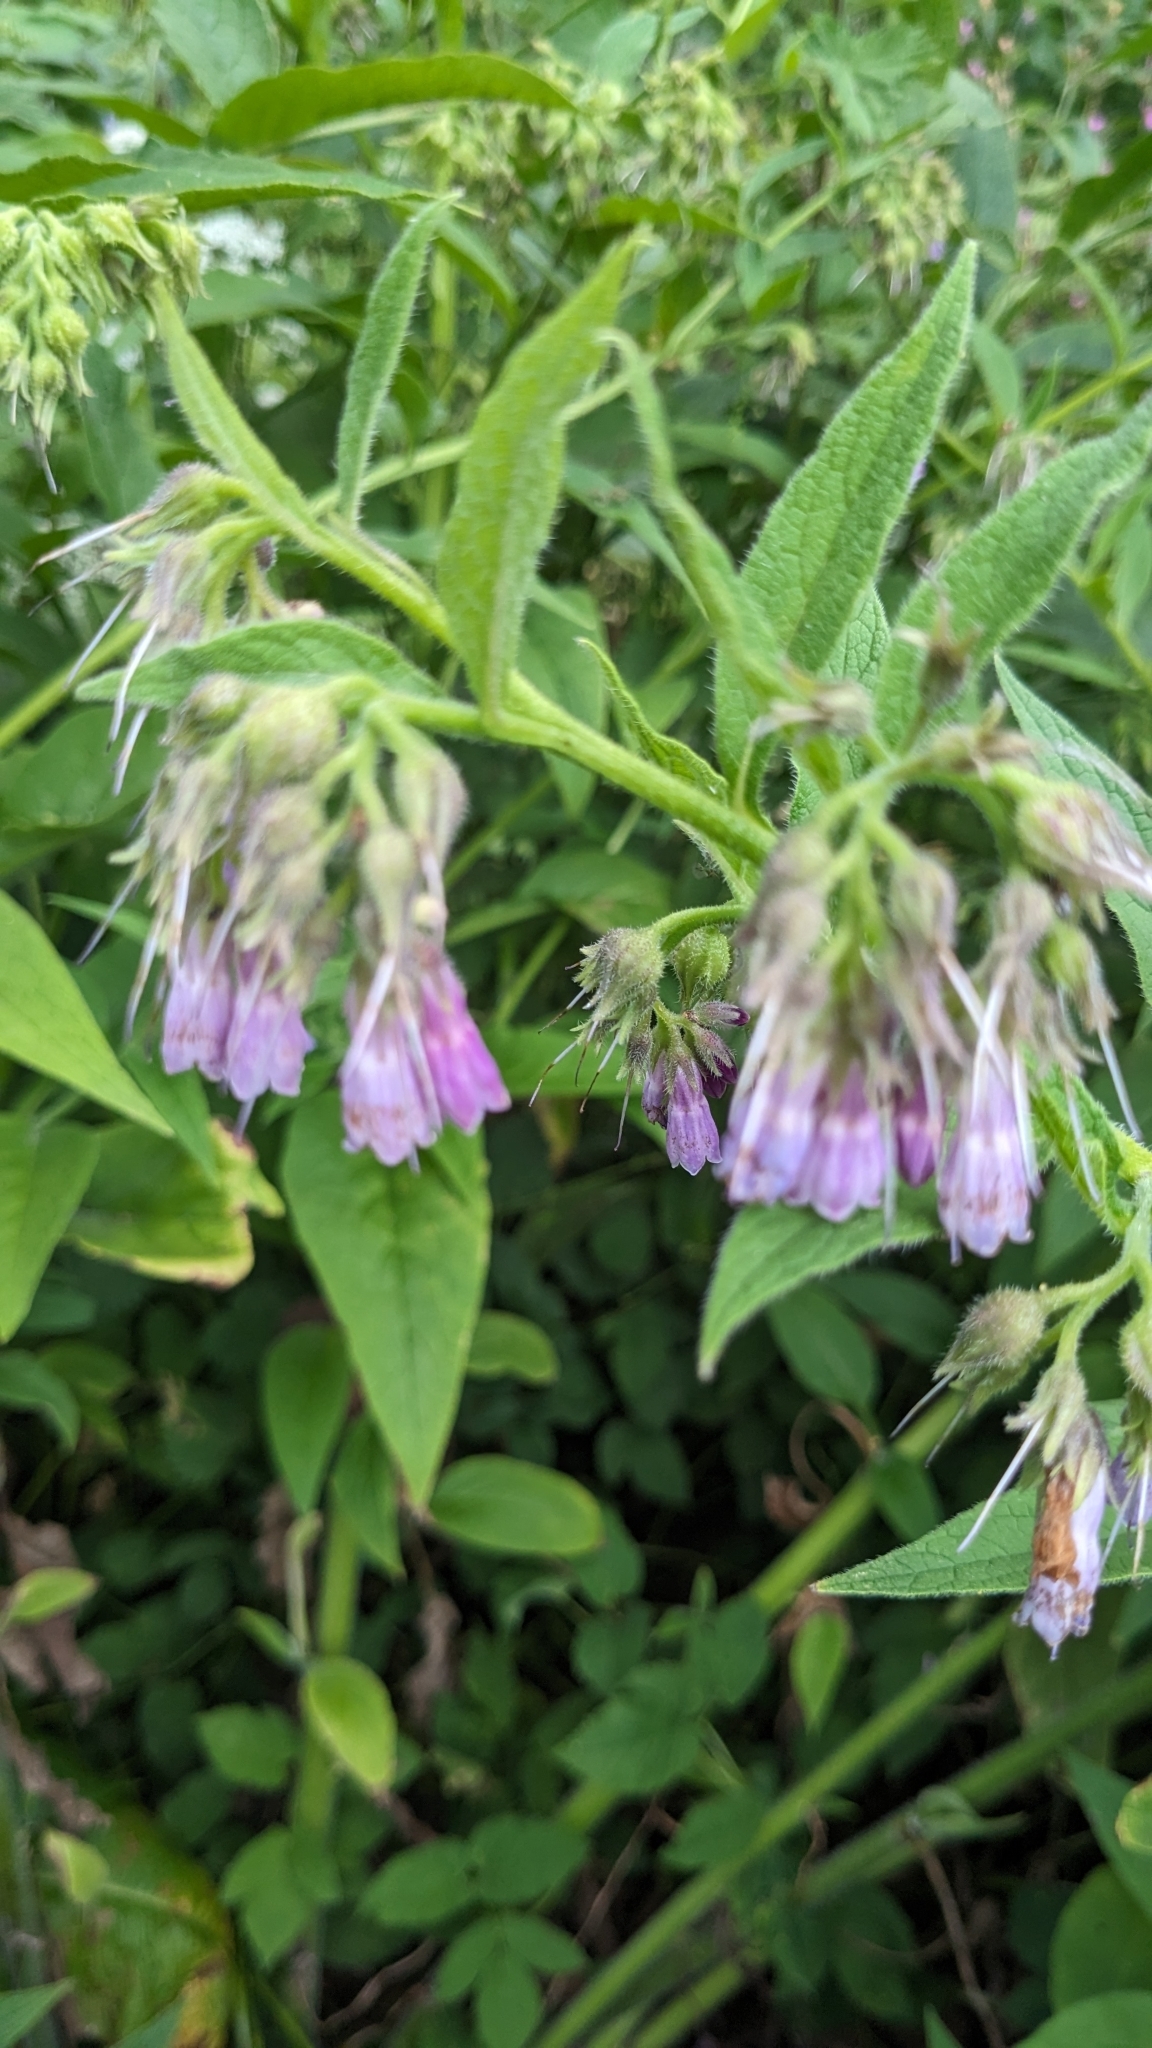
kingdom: Plantae
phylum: Tracheophyta
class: Magnoliopsida
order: Boraginales
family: Boraginaceae
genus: Symphytum
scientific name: Symphytum officinale
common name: Common comfrey
